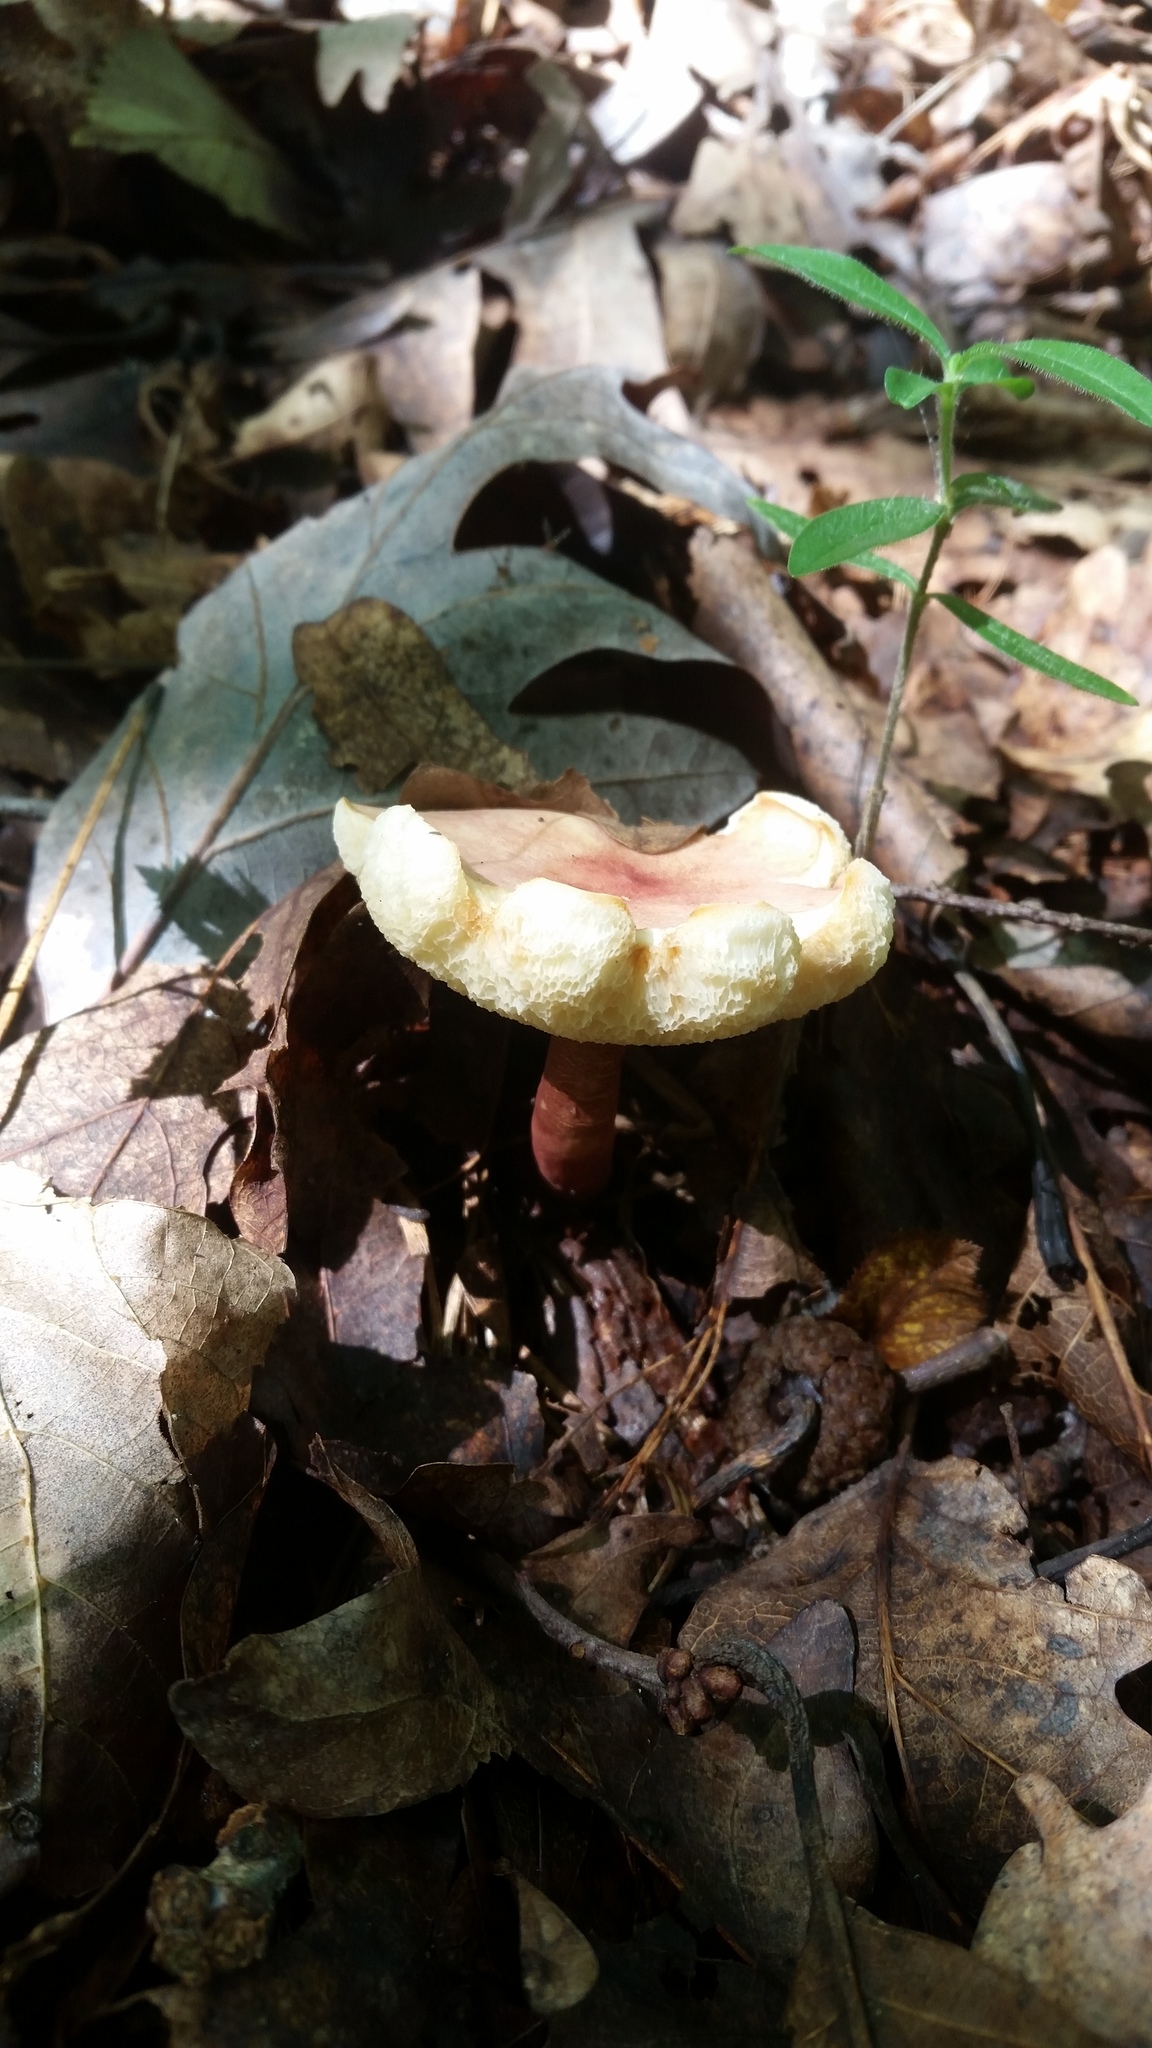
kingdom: Fungi
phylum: Basidiomycota
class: Agaricomycetes
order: Boletales
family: Gyroporaceae
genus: Gyroporus
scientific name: Gyroporus purpurinus
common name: Red gyroporus
